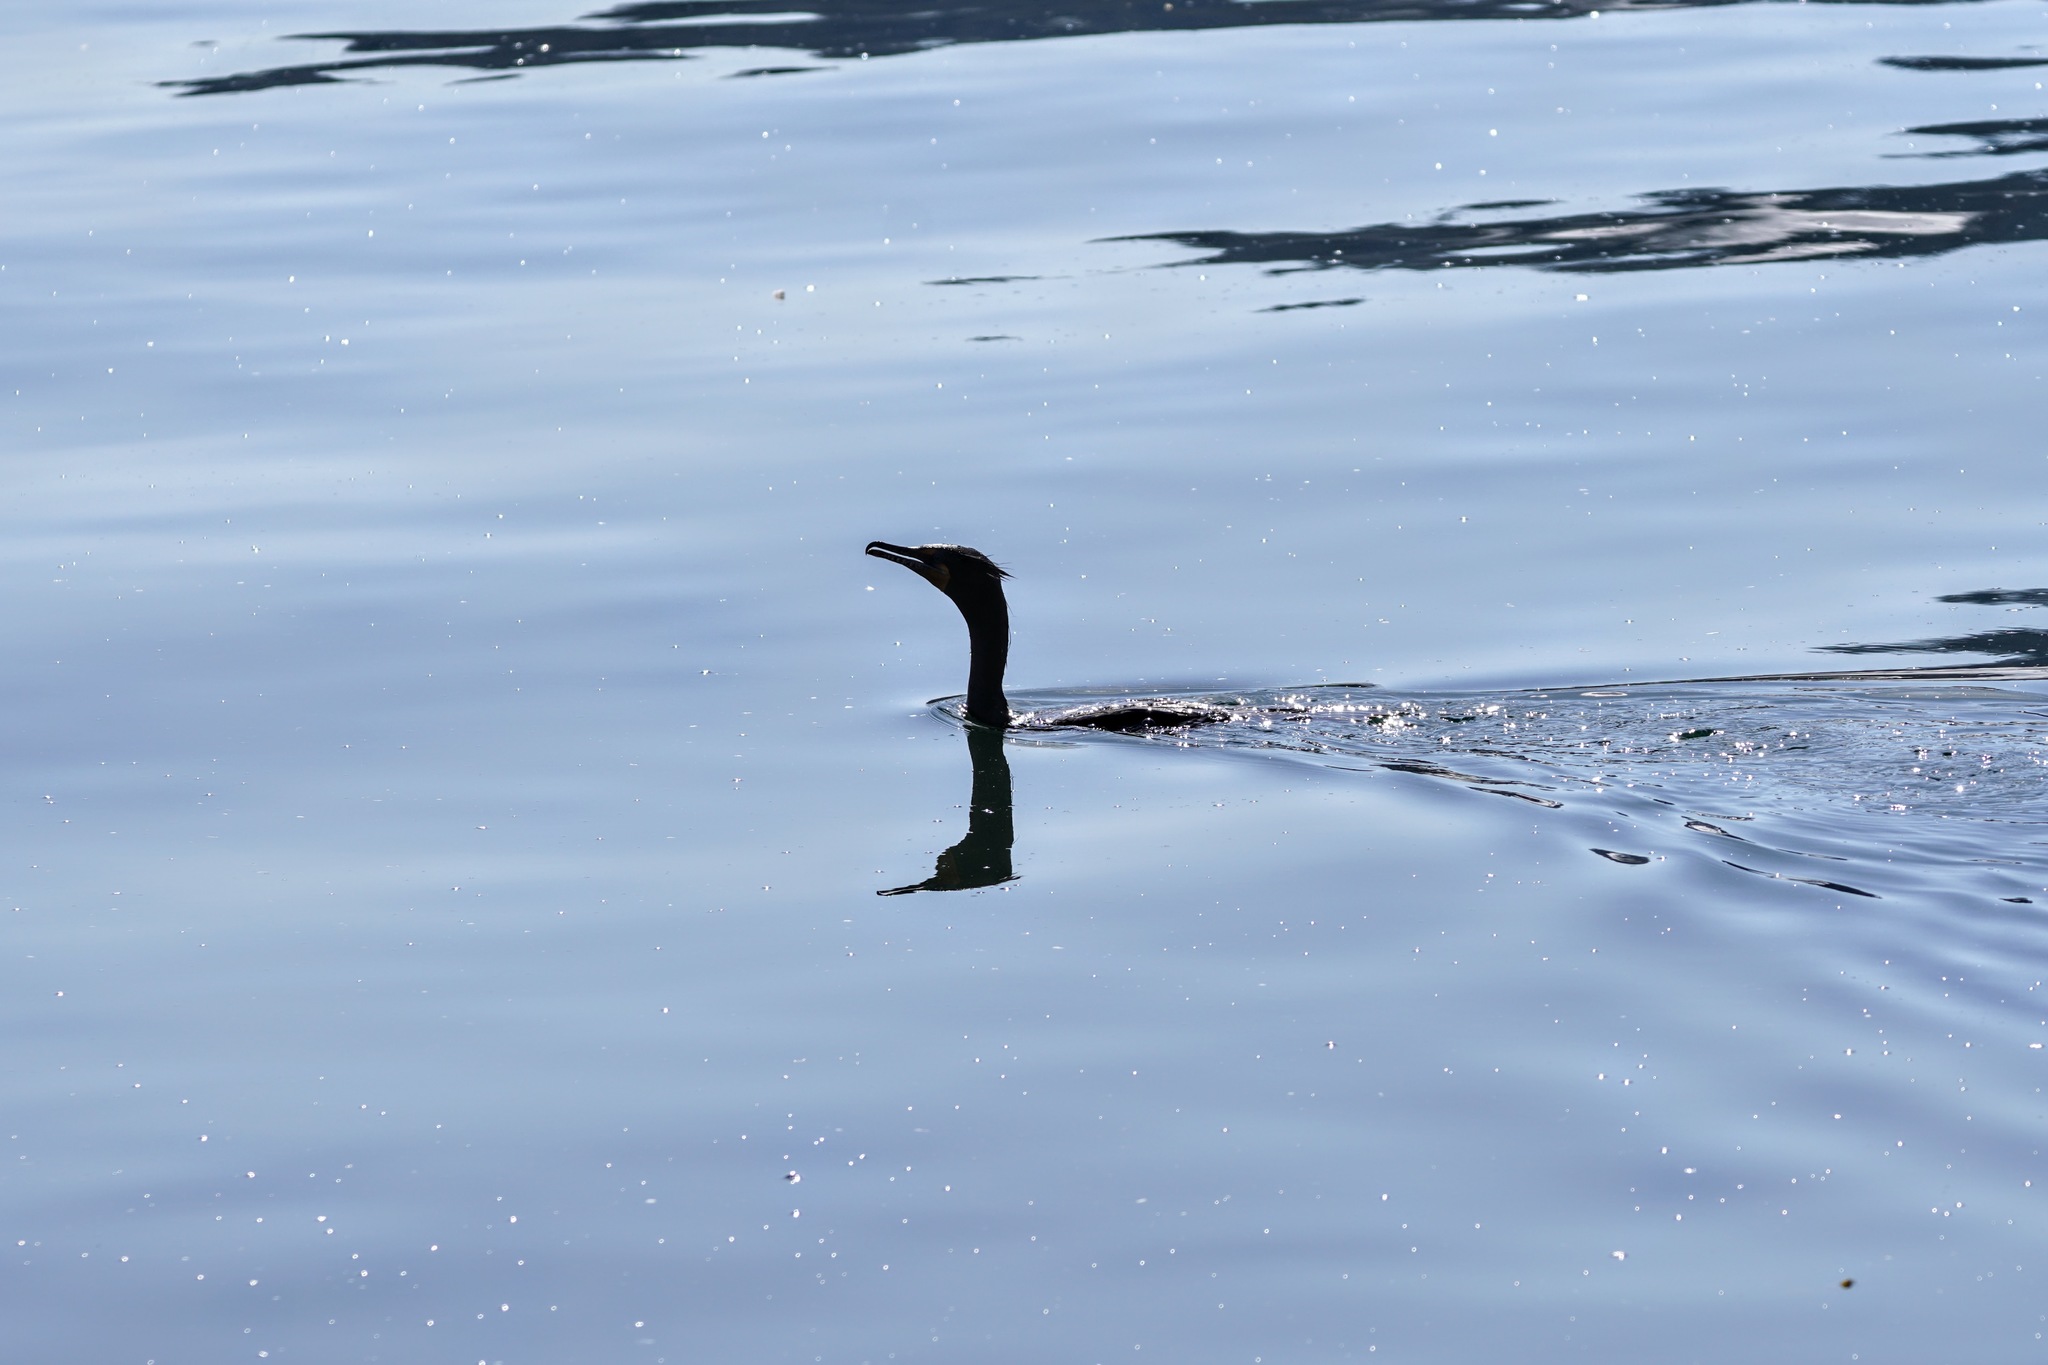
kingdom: Animalia
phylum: Chordata
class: Aves
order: Suliformes
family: Phalacrocoracidae
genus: Phalacrocorax
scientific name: Phalacrocorax auritus
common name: Double-crested cormorant
